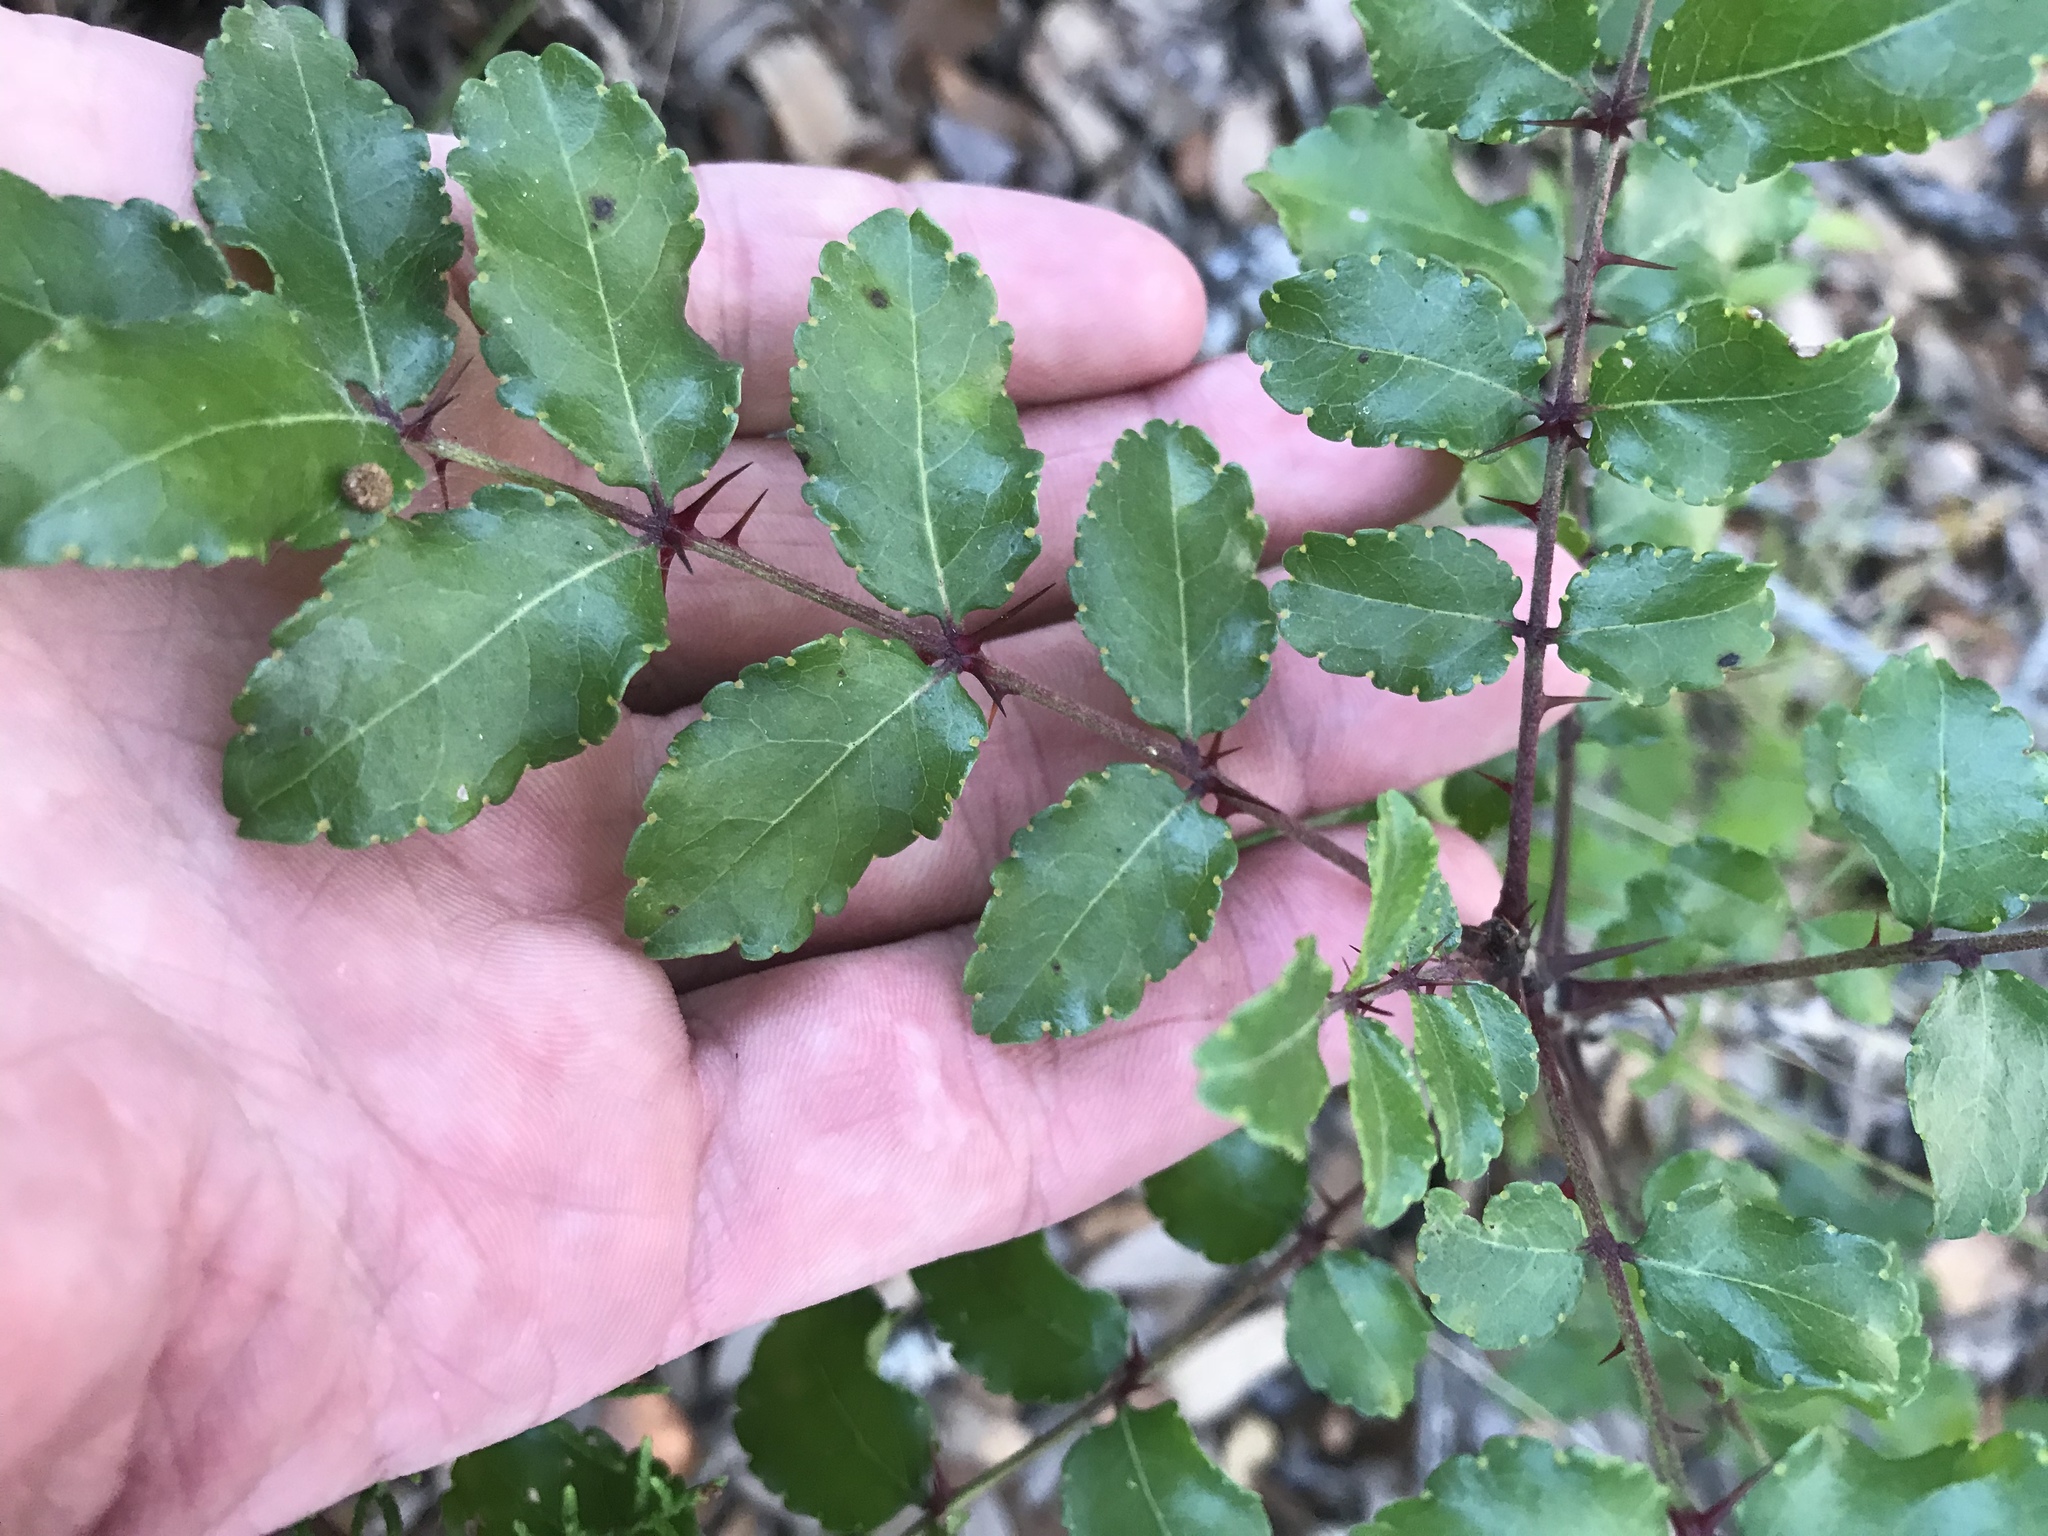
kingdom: Plantae
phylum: Tracheophyta
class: Magnoliopsida
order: Sapindales
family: Rutaceae
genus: Zanthoxylum
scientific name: Zanthoxylum clava-herculis
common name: Hercules'-club
